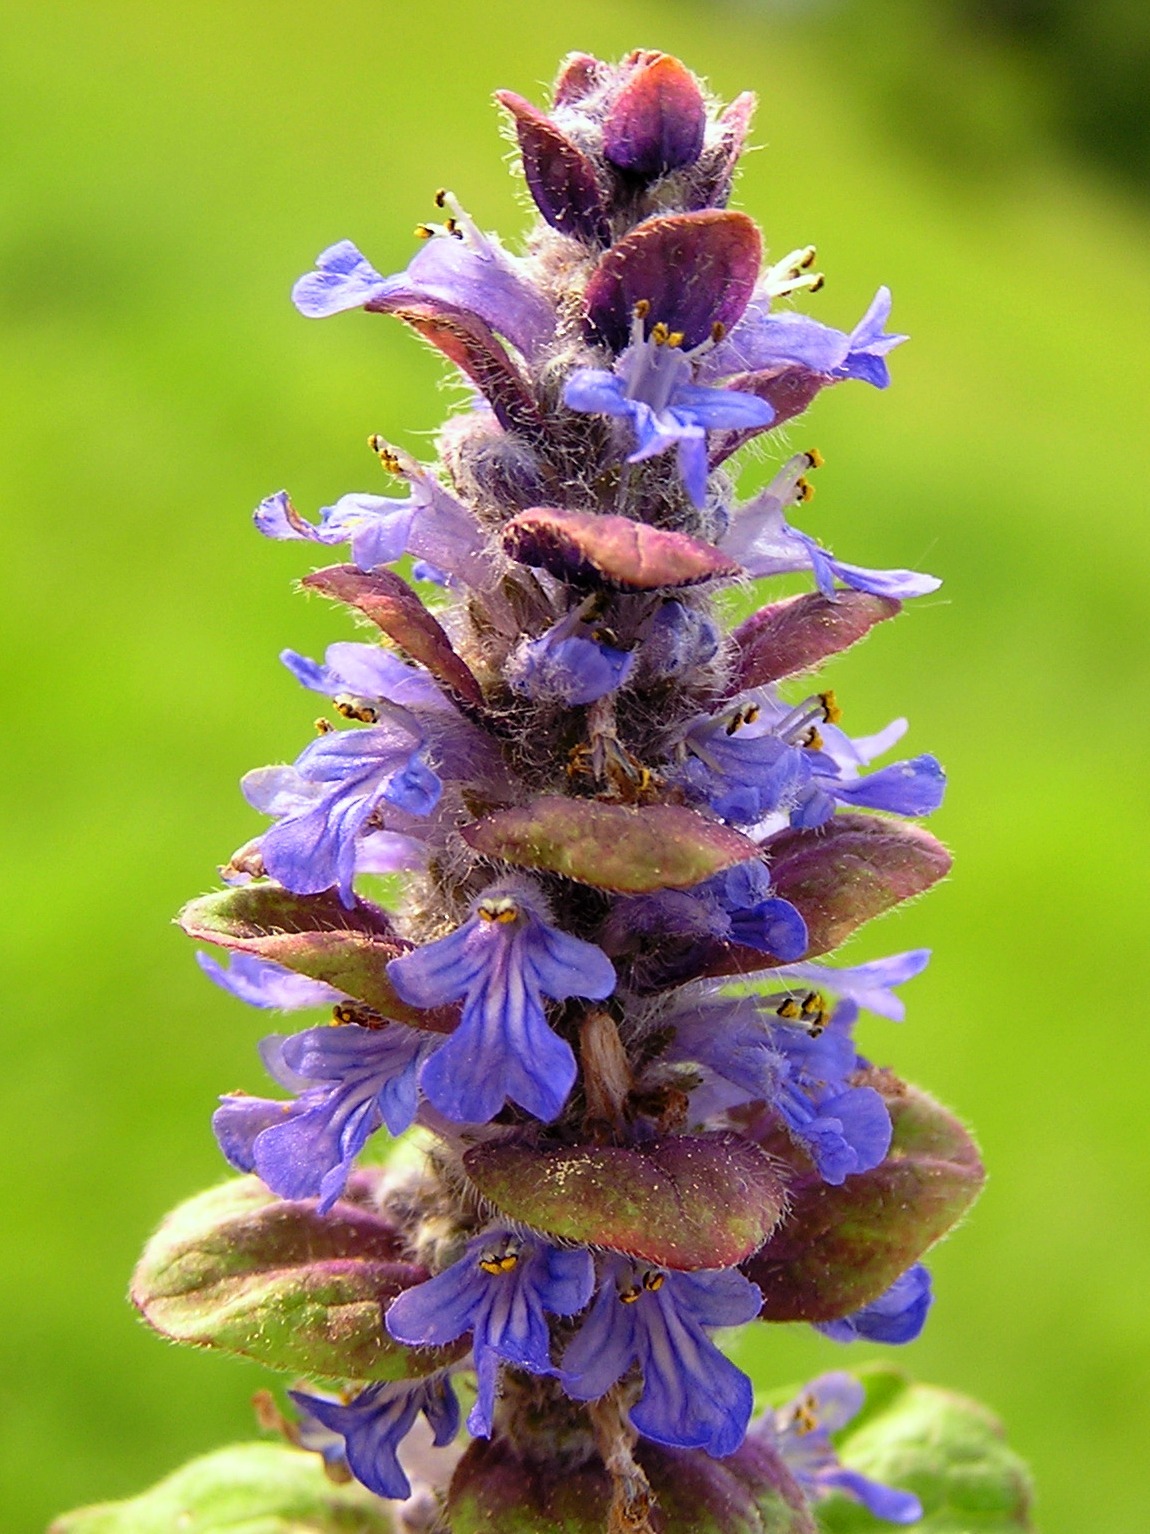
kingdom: Plantae
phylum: Tracheophyta
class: Magnoliopsida
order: Lamiales
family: Lamiaceae
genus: Ajuga
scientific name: Ajuga reptans
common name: Bugle
